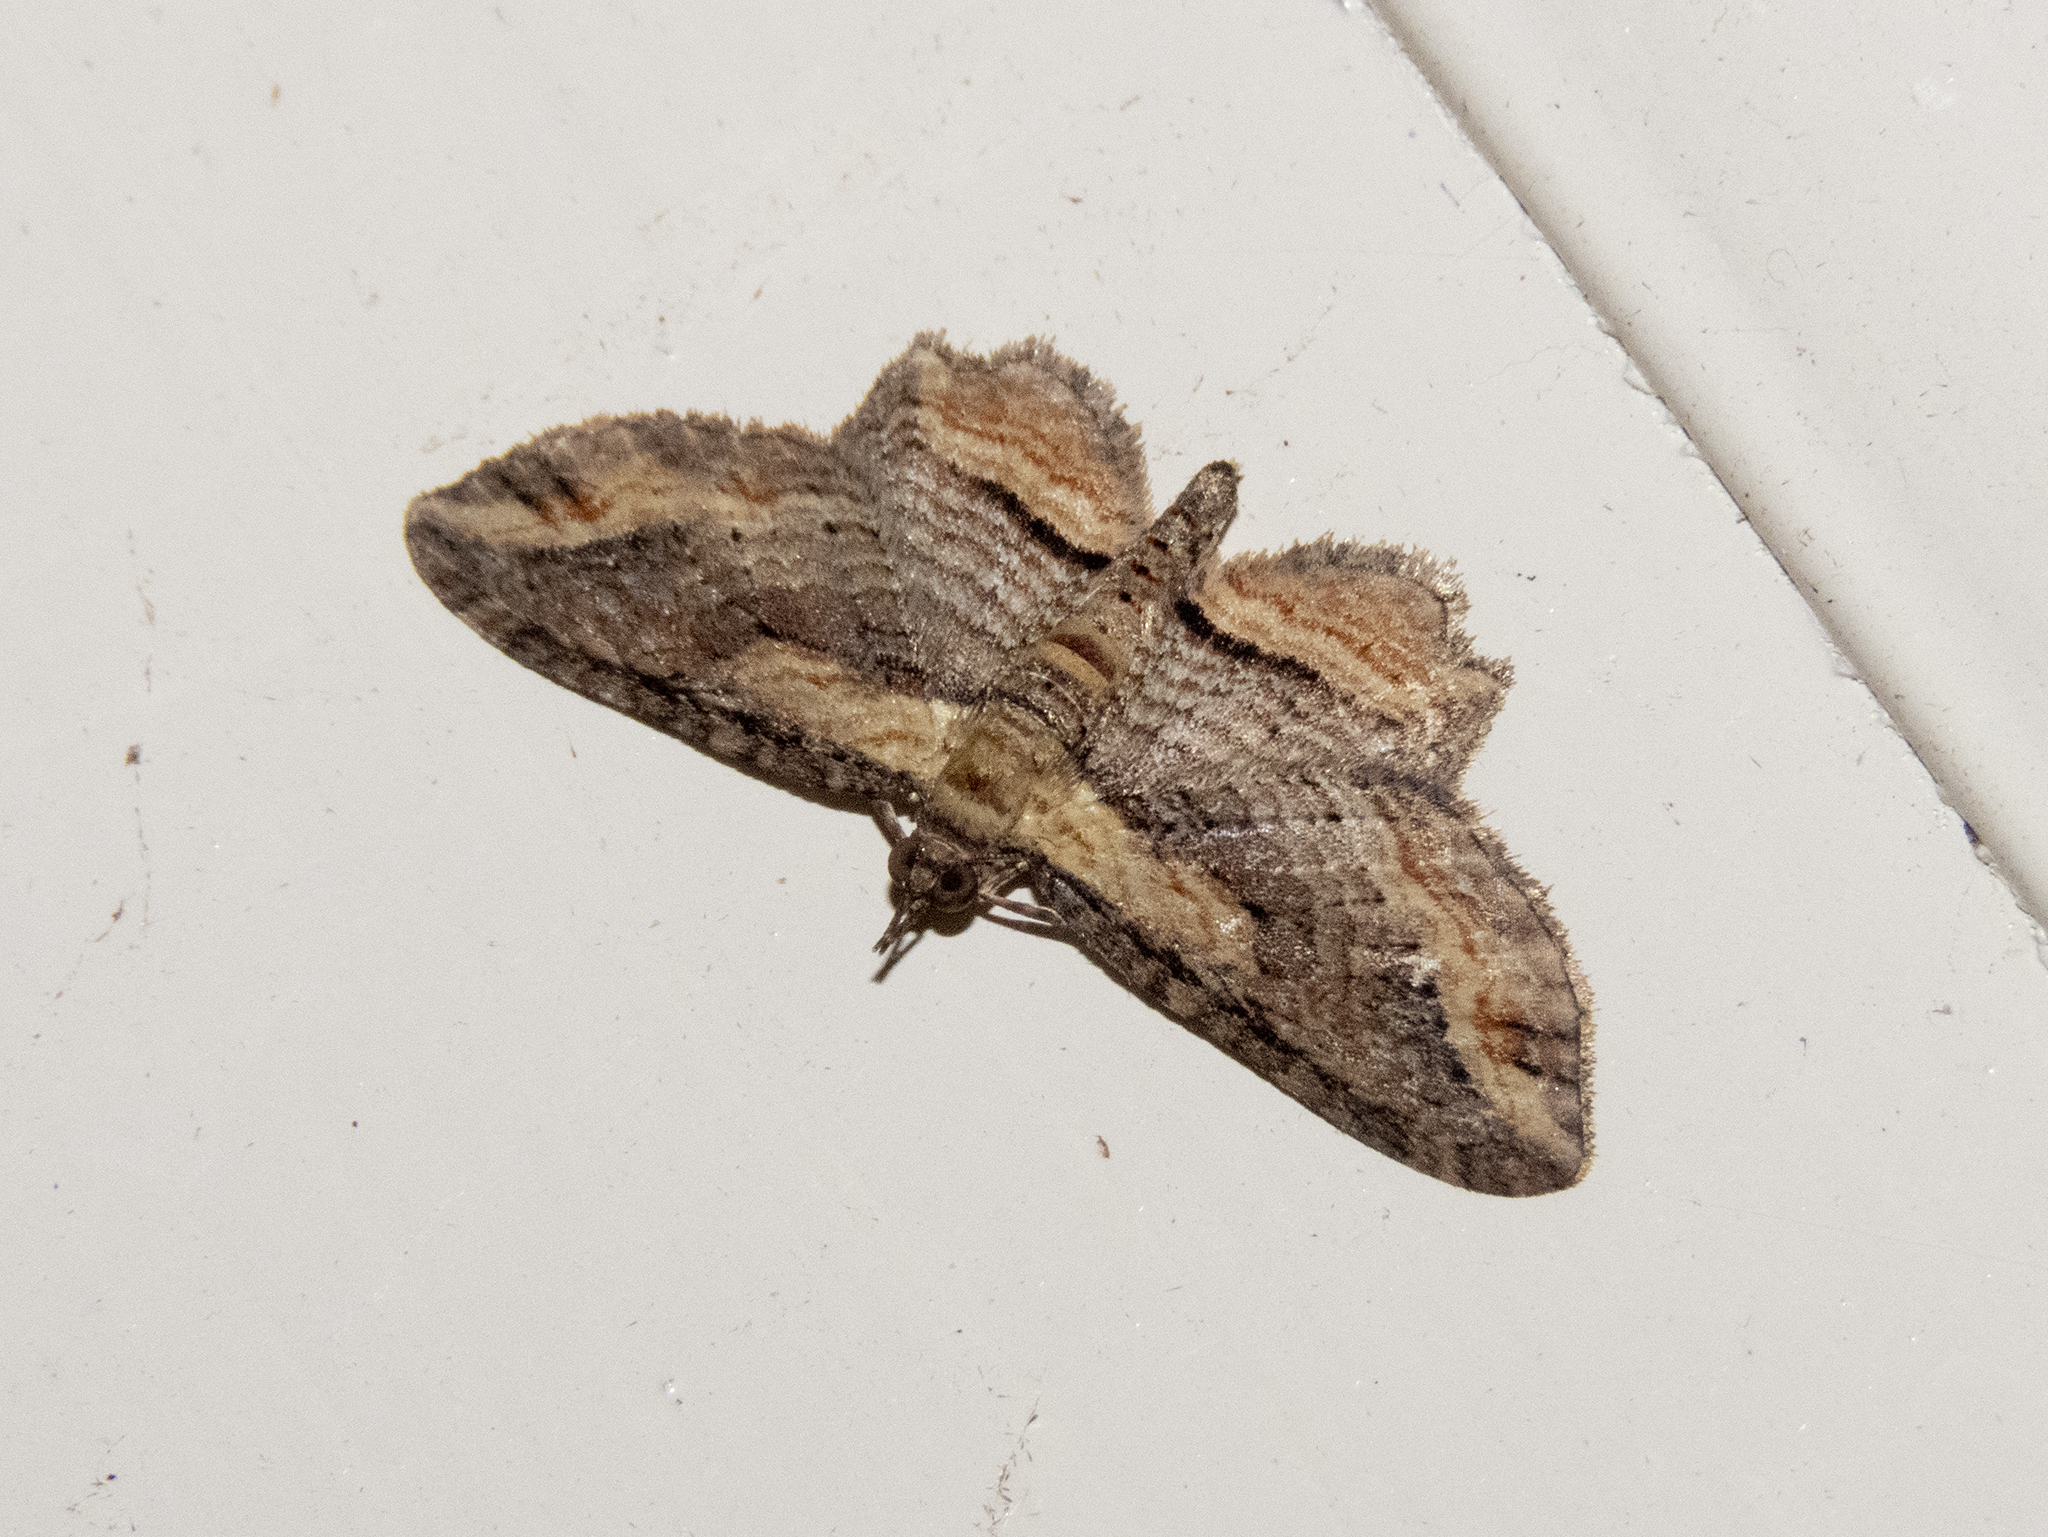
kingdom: Animalia
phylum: Arthropoda
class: Insecta
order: Lepidoptera
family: Geometridae
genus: Chloroclystis
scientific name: Chloroclystis filata
